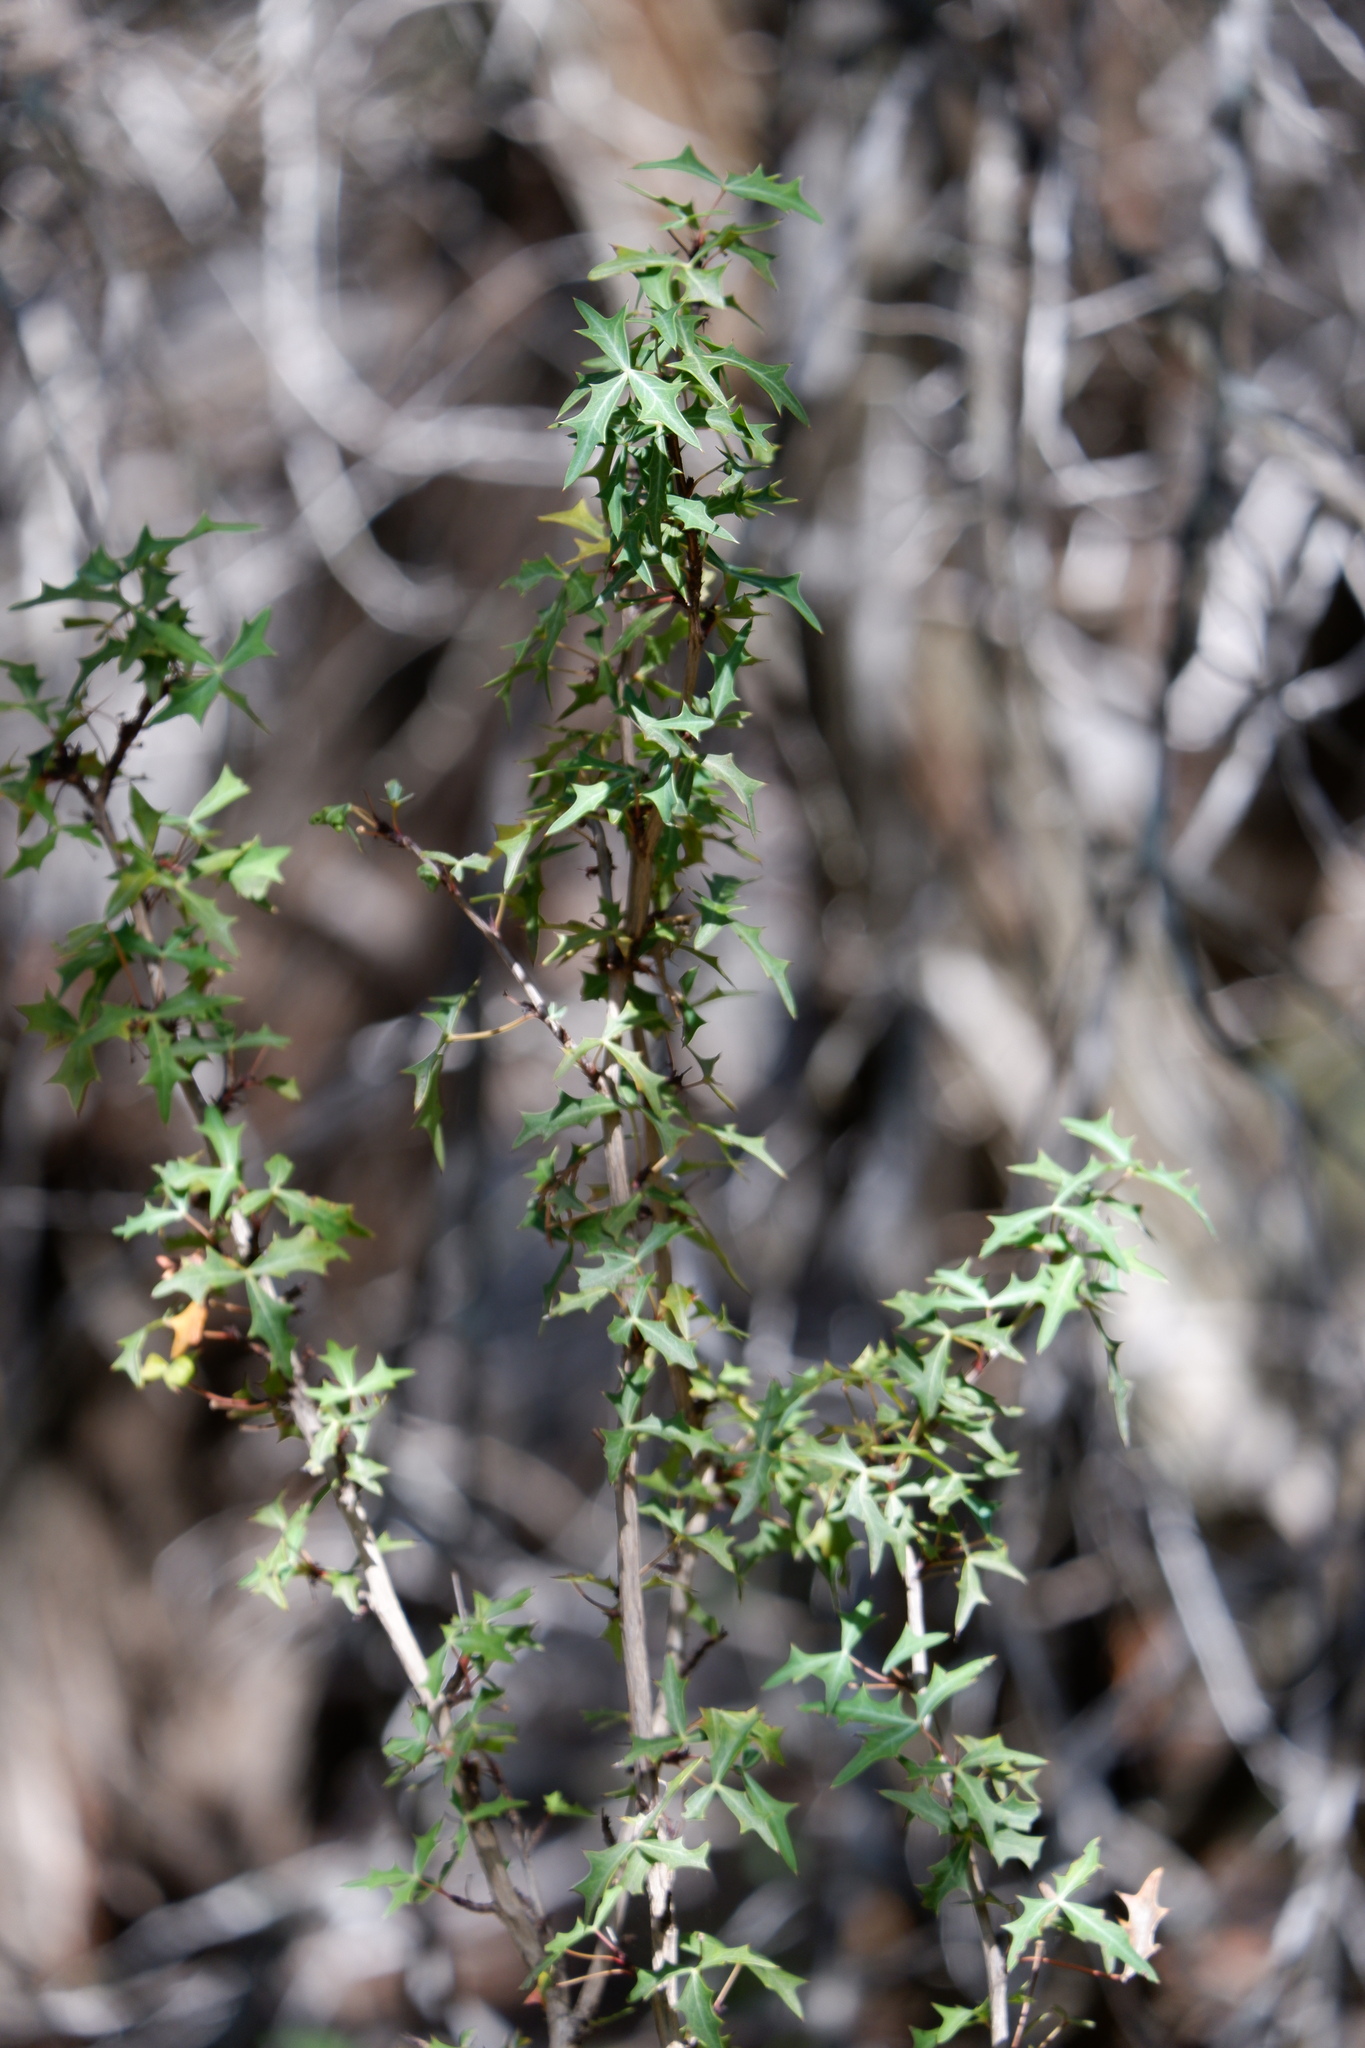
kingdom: Plantae
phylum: Tracheophyta
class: Magnoliopsida
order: Ranunculales
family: Berberidaceae
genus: Alloberberis
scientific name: Alloberberis trifoliolata
